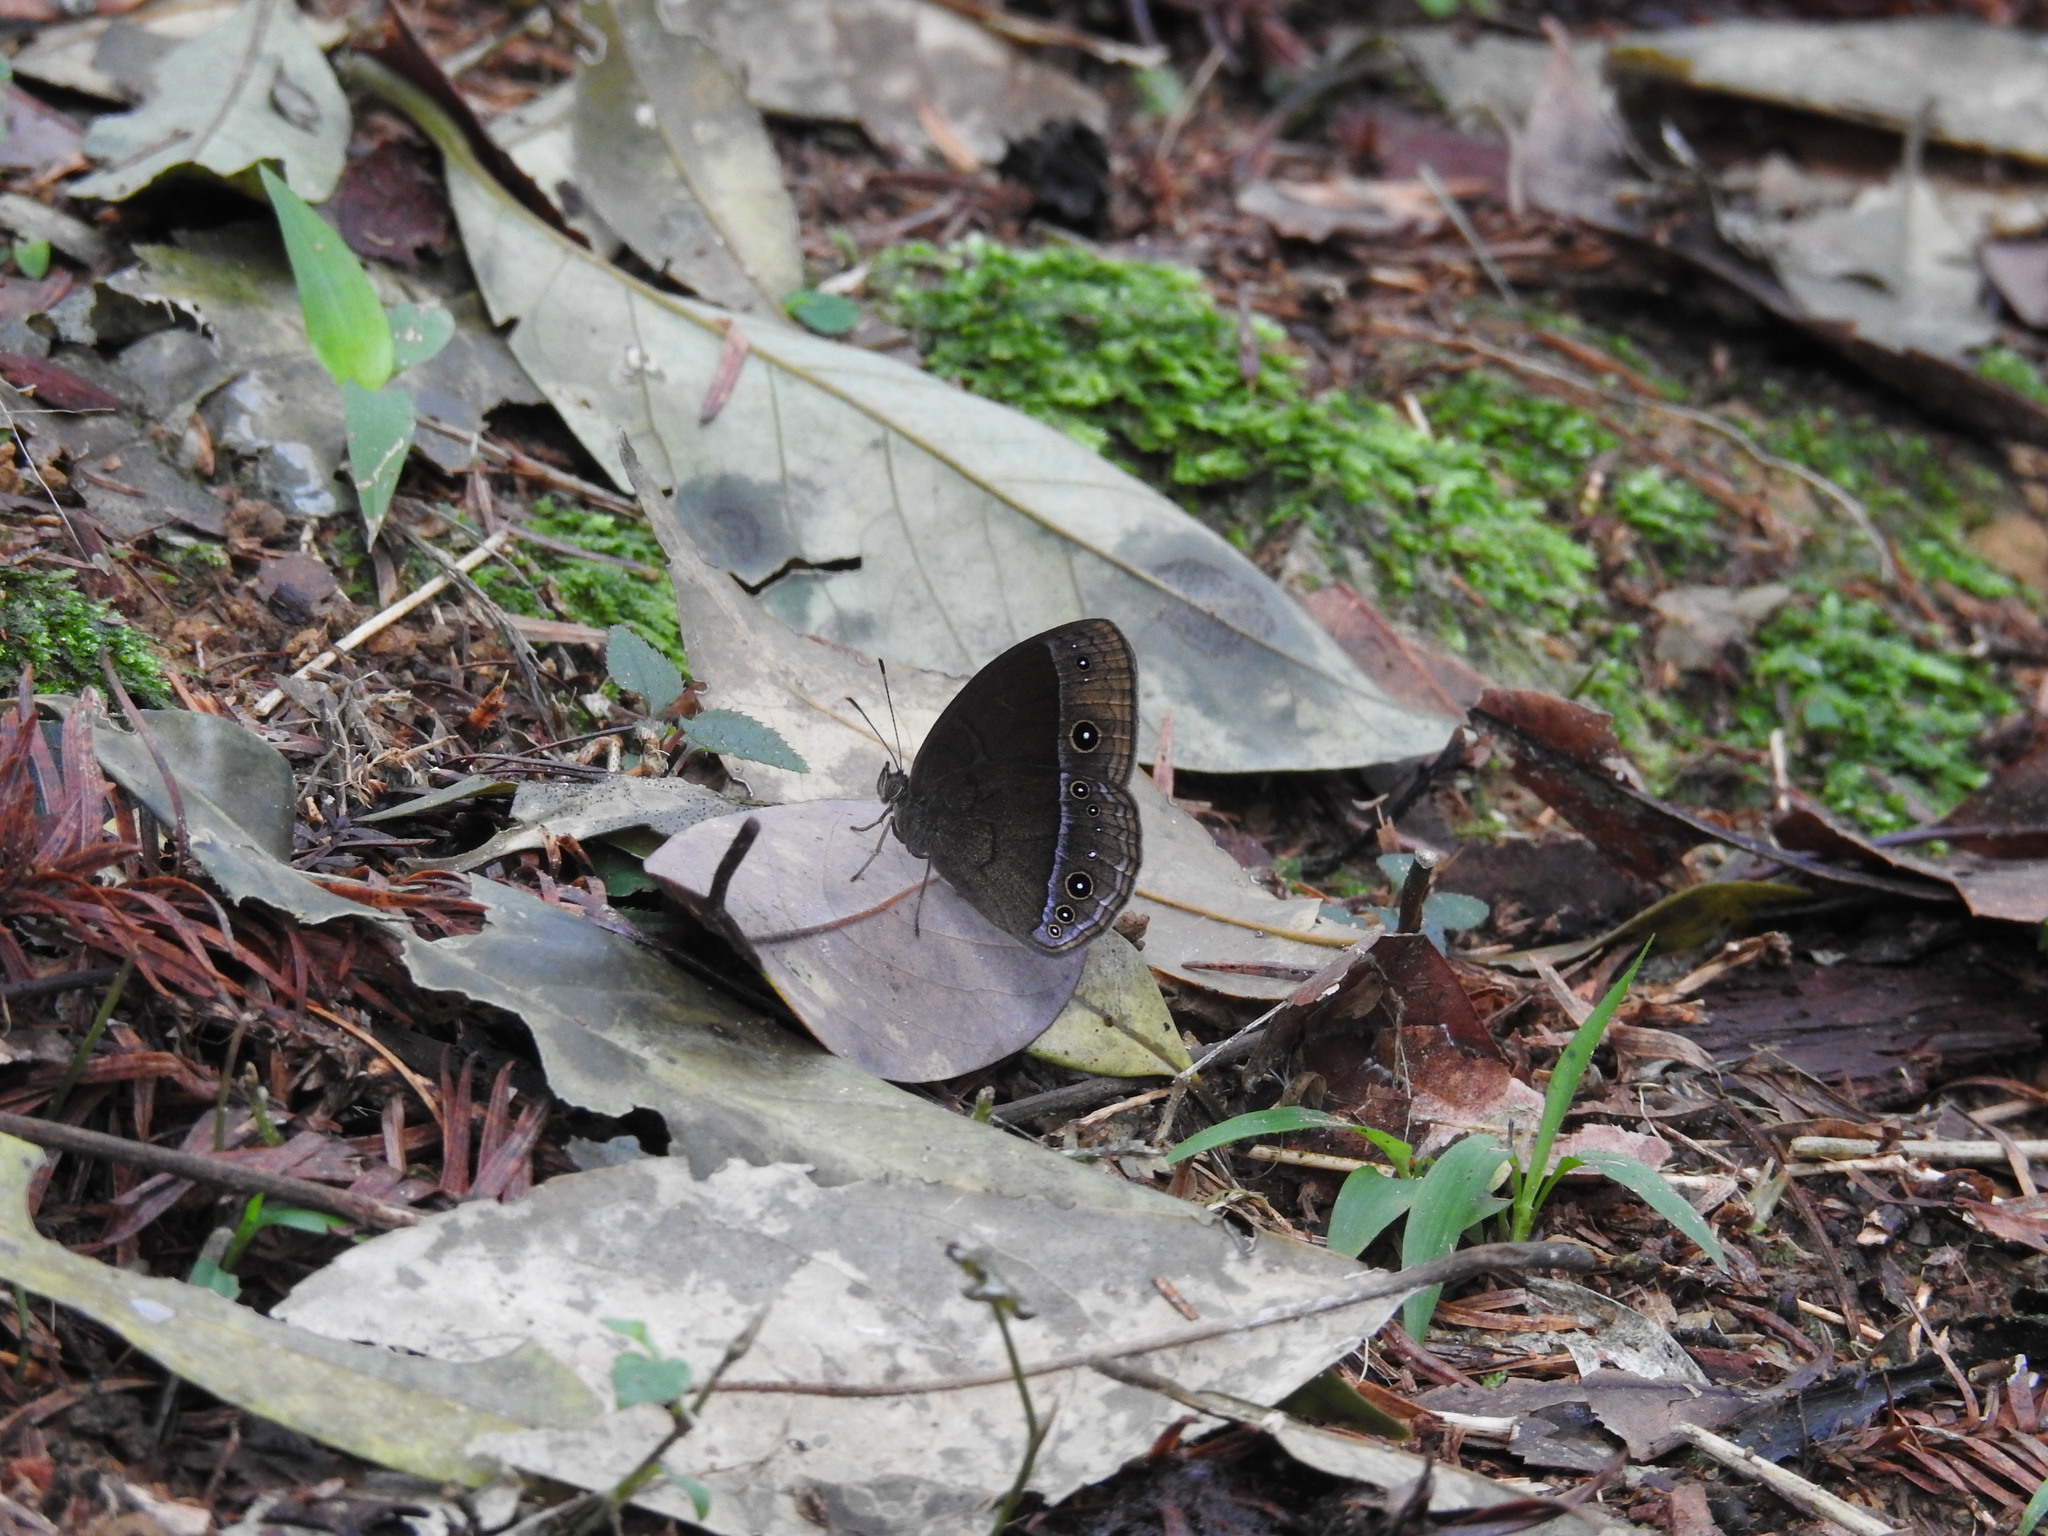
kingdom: Animalia
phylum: Arthropoda
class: Insecta
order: Lepidoptera
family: Nymphalidae
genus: Mycalesis
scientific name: Mycalesis francisca
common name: Lilacine bushbrown
